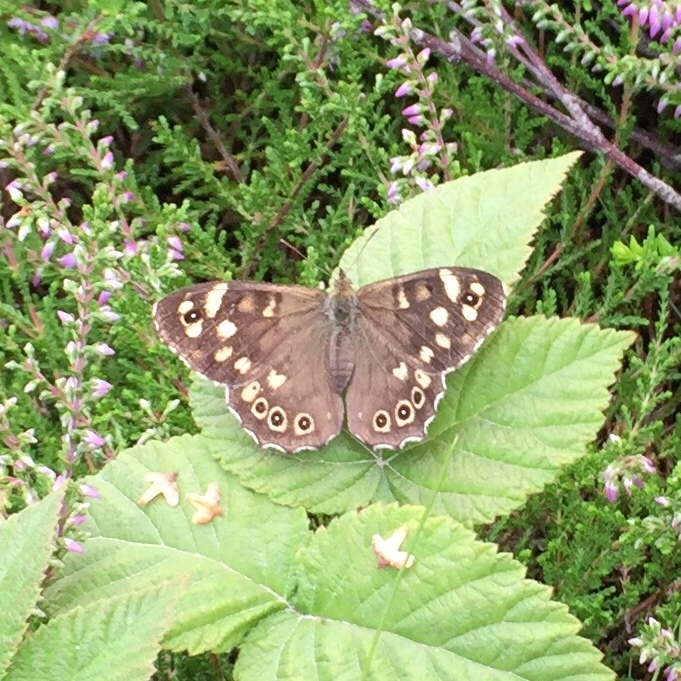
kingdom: Animalia
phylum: Arthropoda
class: Insecta
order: Lepidoptera
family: Nymphalidae
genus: Pararge
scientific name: Pararge aegeria
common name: Speckled wood
